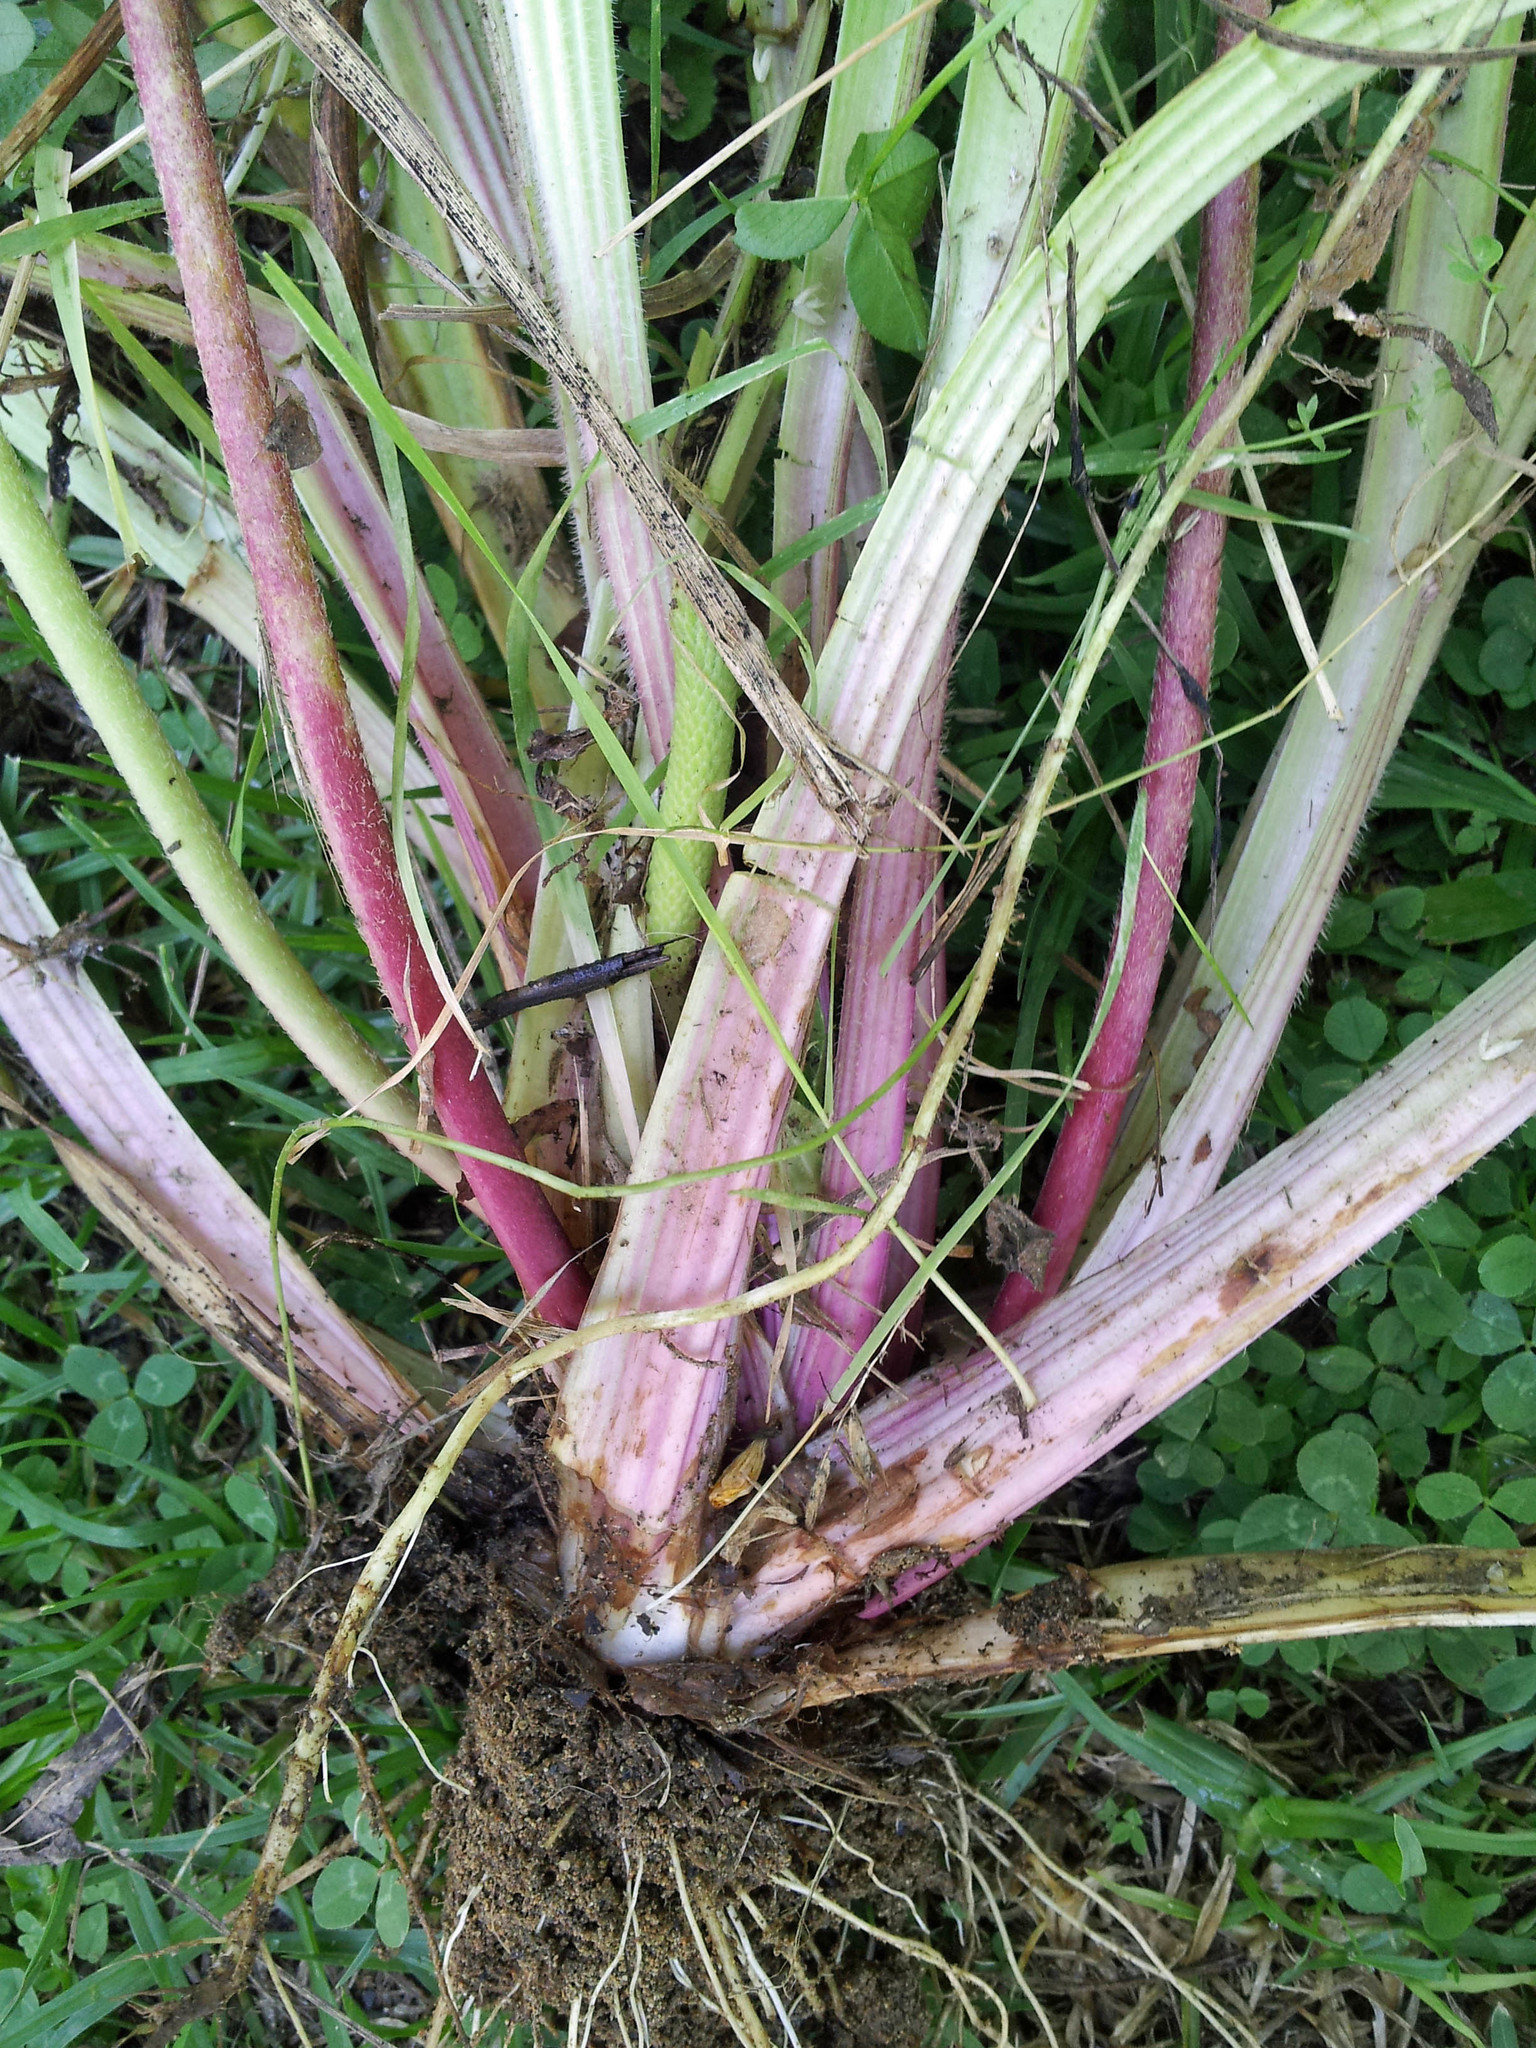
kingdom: Plantae
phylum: Tracheophyta
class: Magnoliopsida
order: Lamiales
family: Plantaginaceae
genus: Plantago
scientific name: Plantago australis
